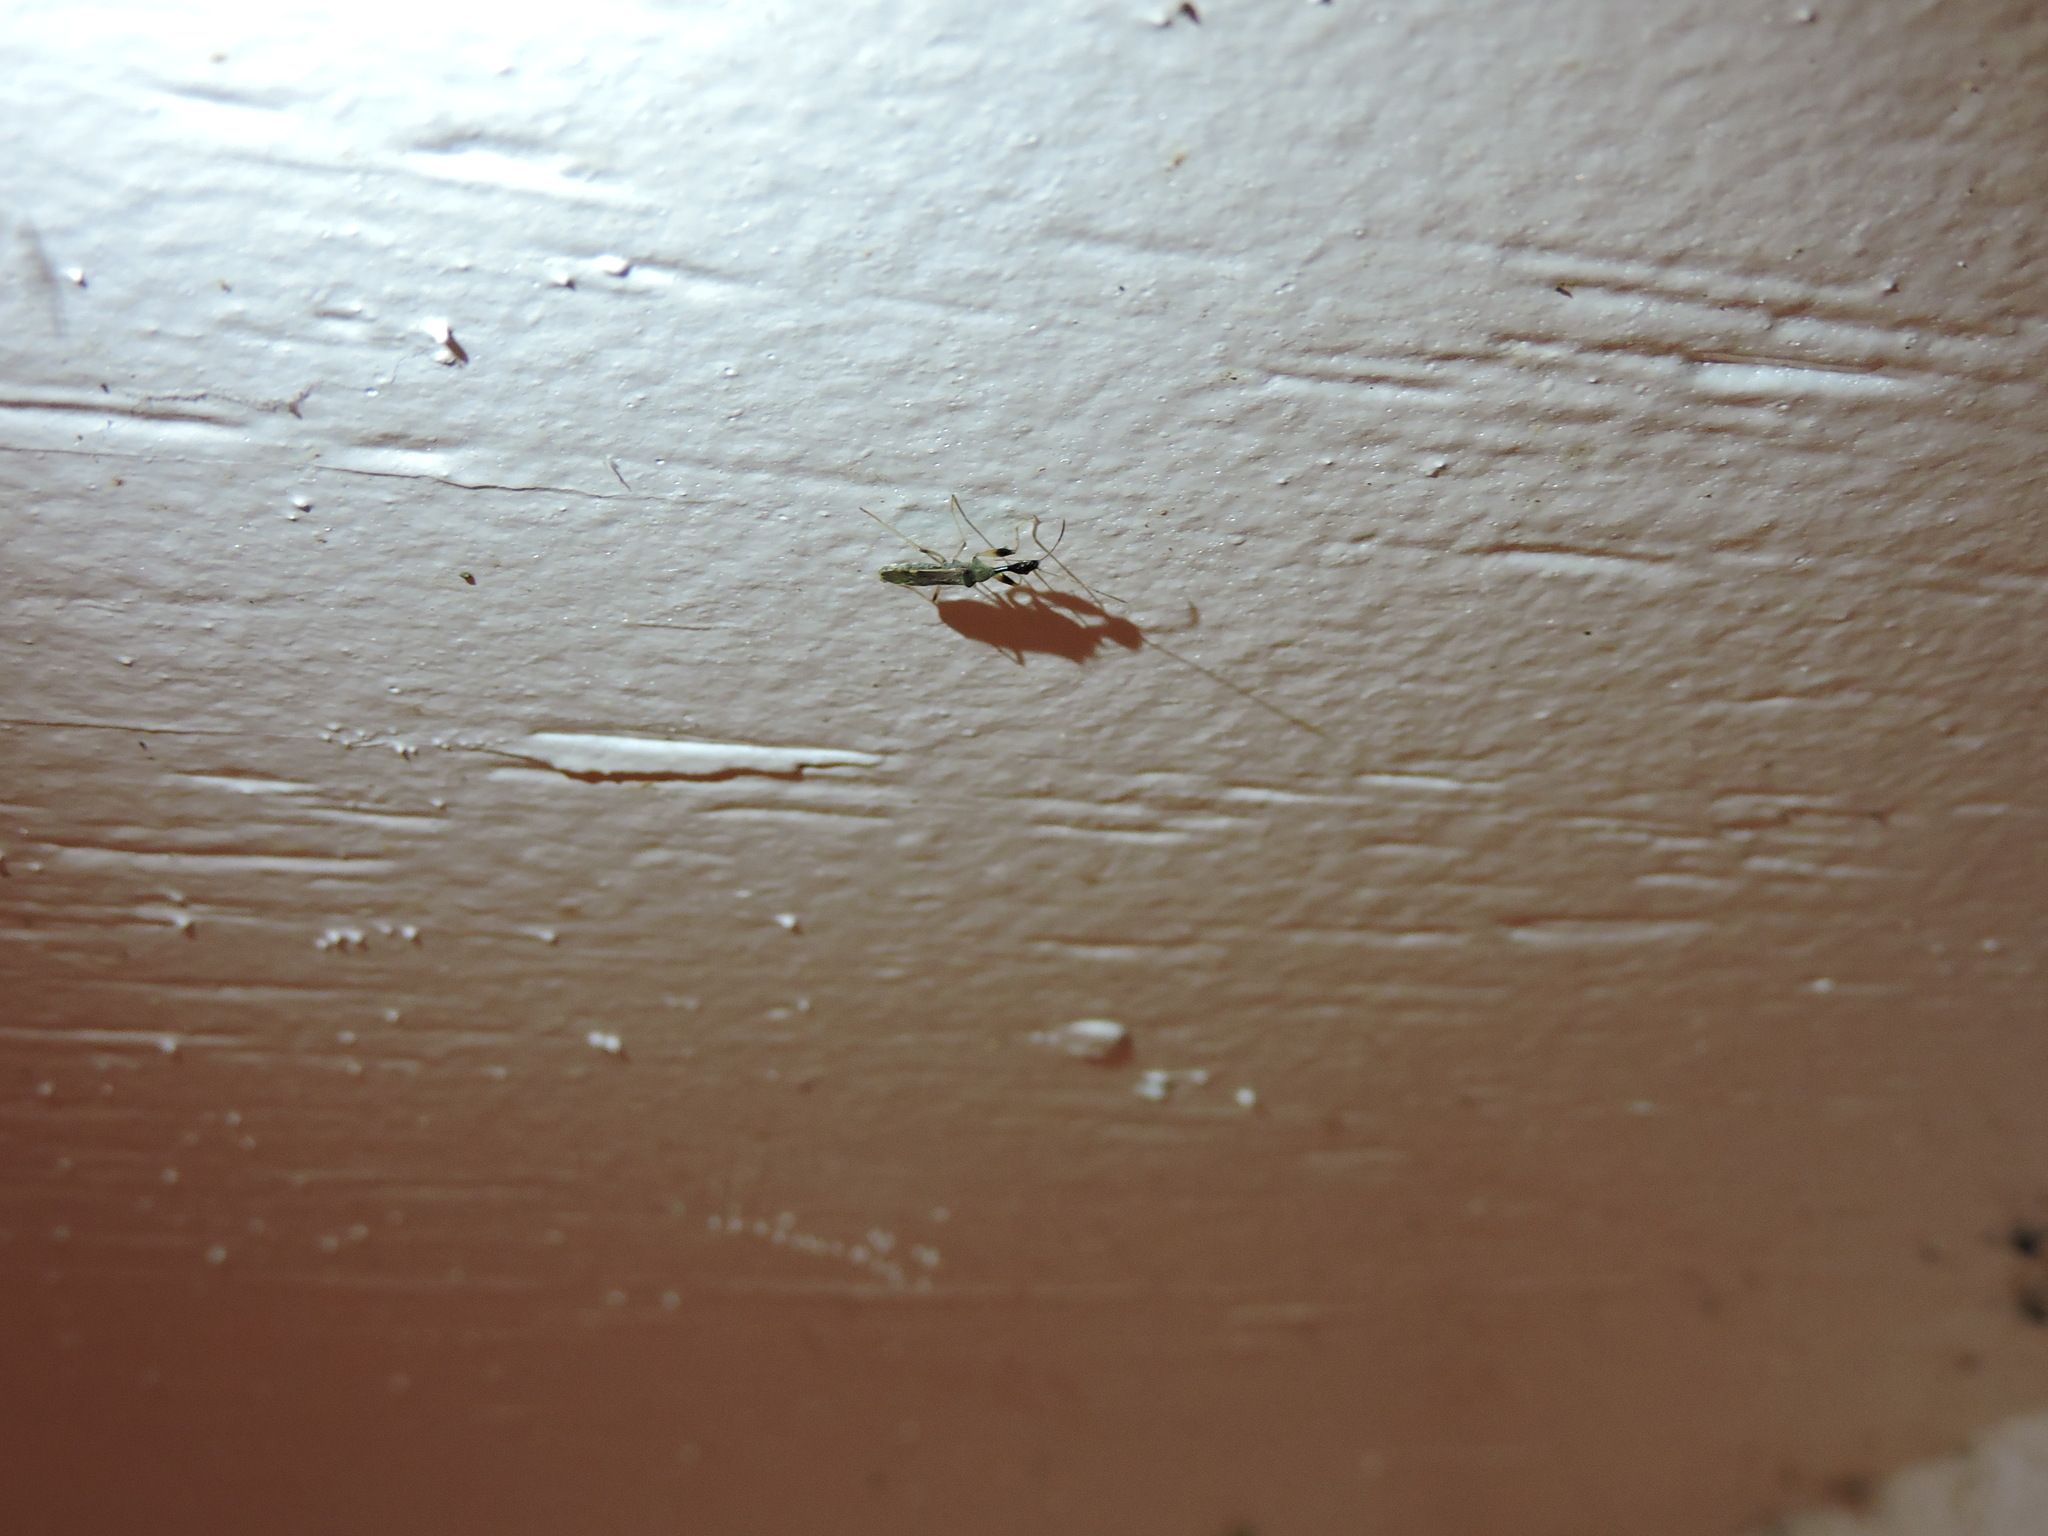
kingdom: Animalia
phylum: Arthropoda
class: Insecta
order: Hemiptera
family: Rhyparochromidae
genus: Myodocha
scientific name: Myodocha serripes
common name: Long-necked seed bug
